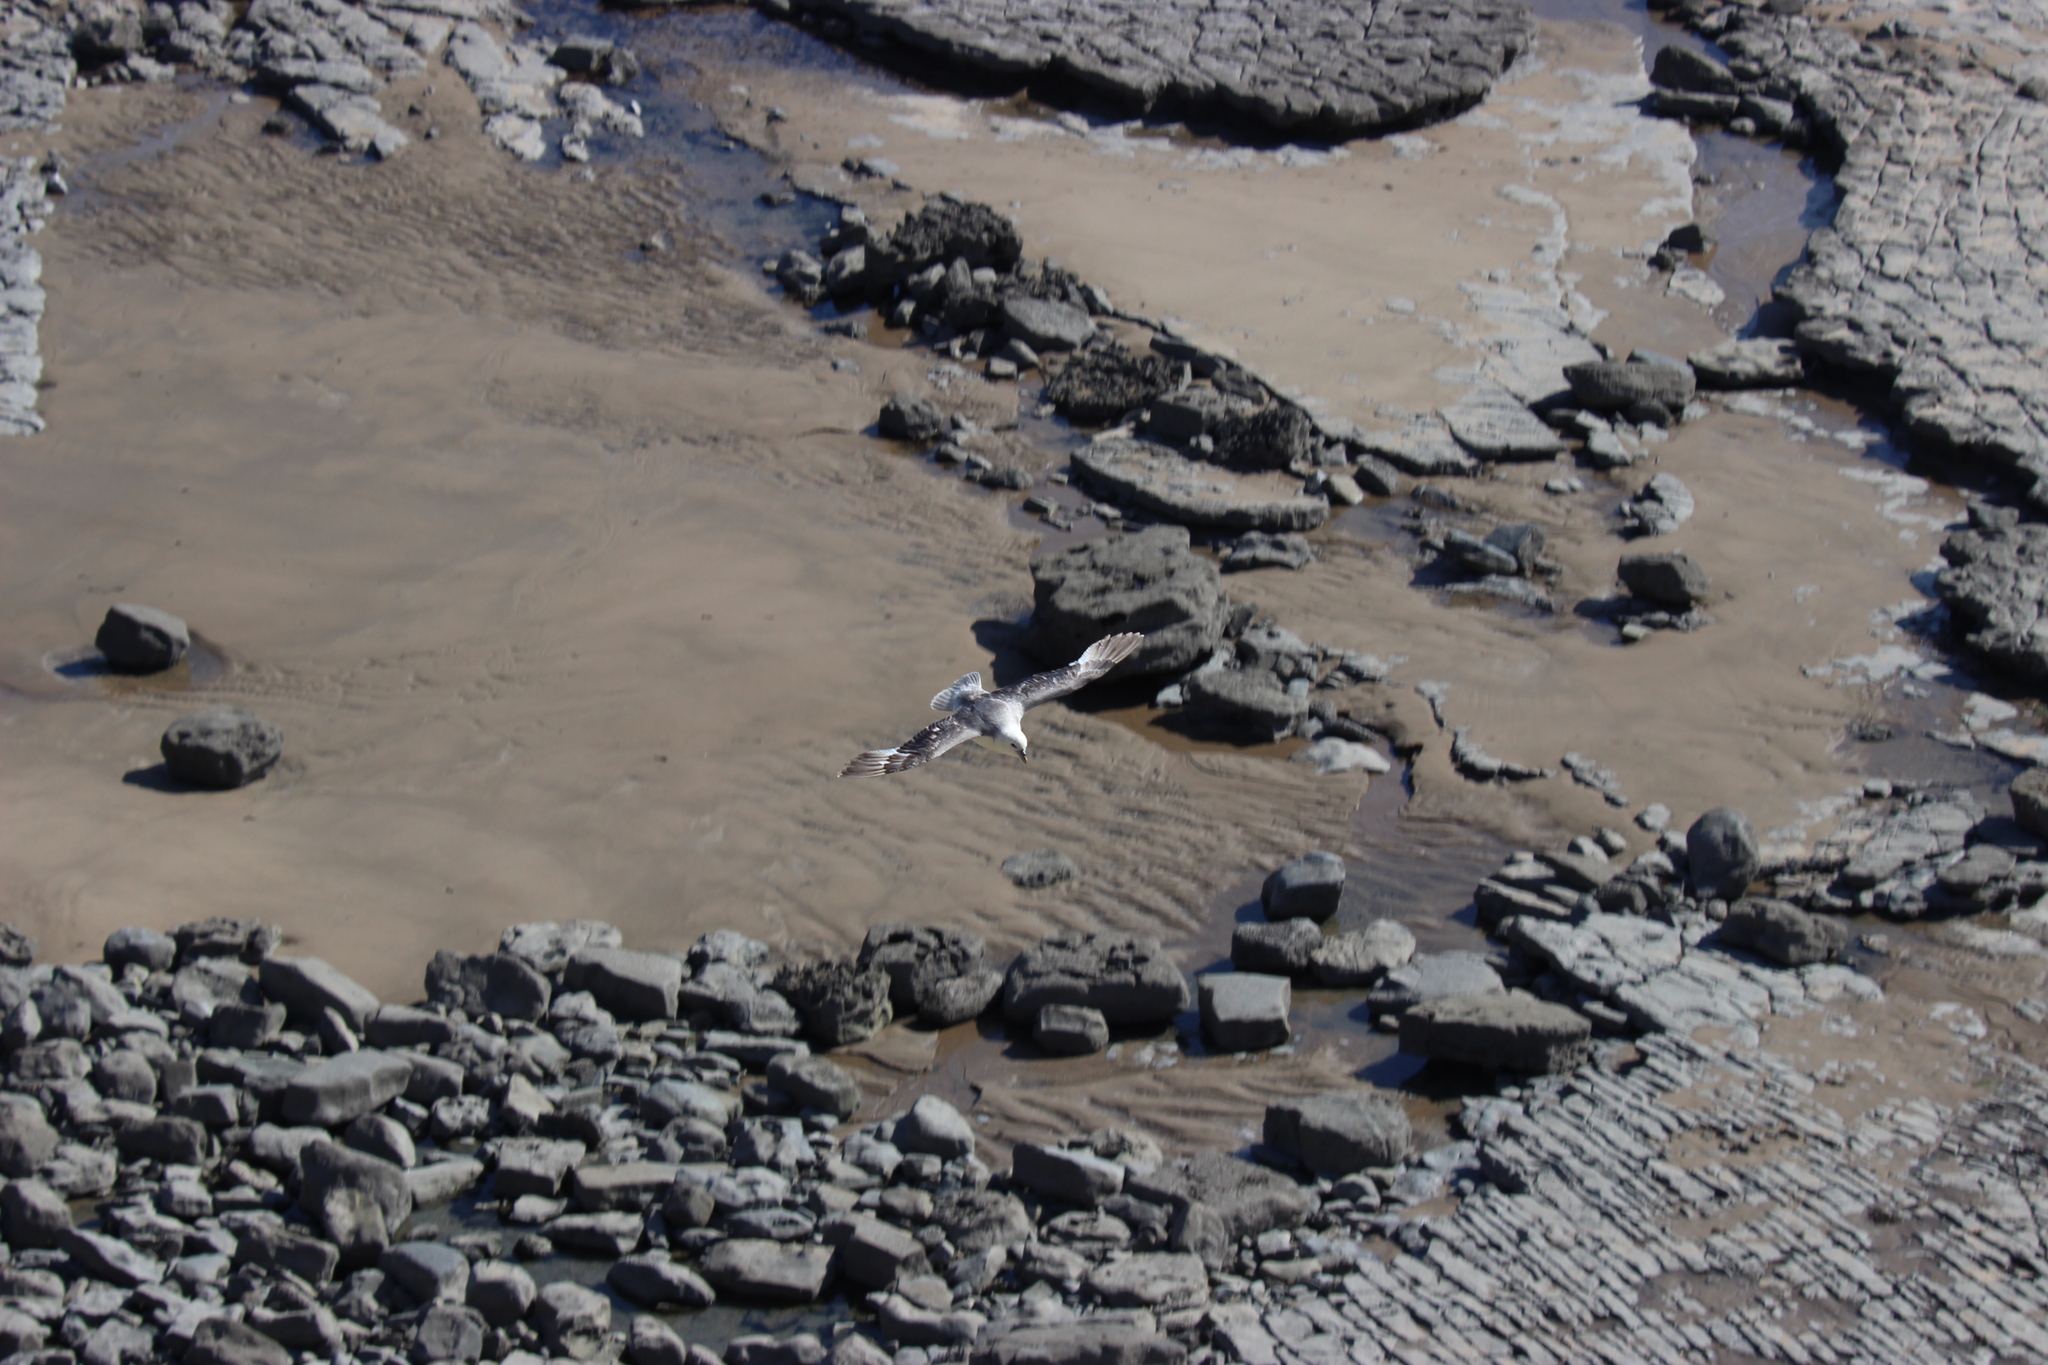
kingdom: Animalia
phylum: Chordata
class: Aves
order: Procellariiformes
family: Procellariidae
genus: Fulmarus
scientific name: Fulmarus glacialis
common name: Northern fulmar
